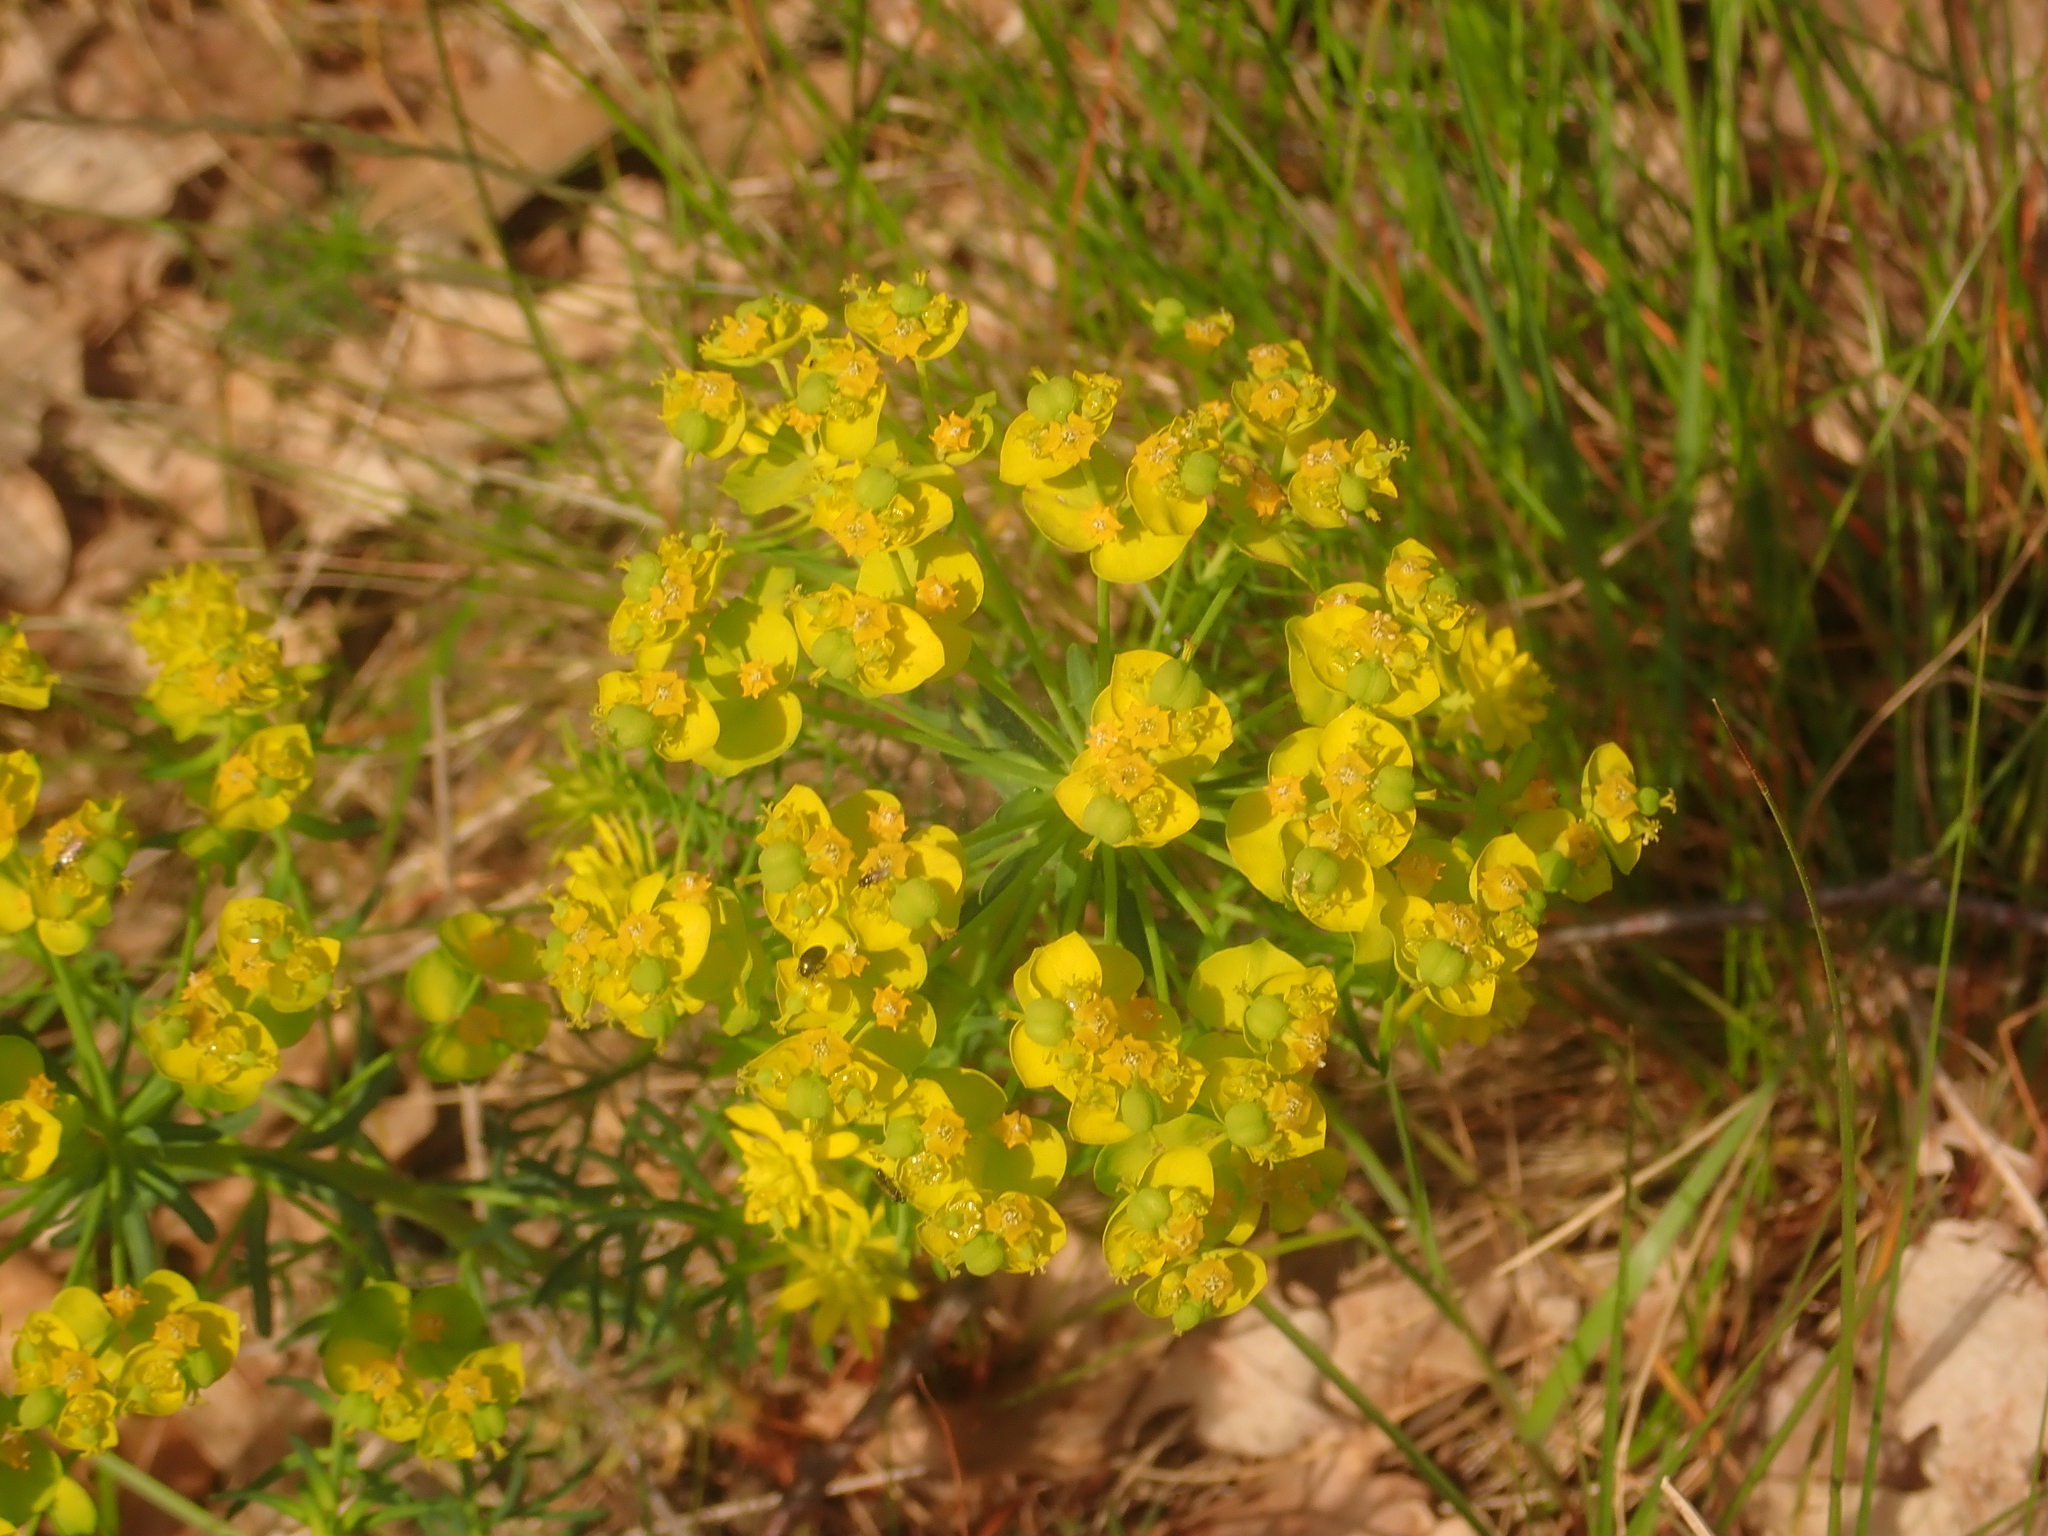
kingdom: Plantae
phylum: Tracheophyta
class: Magnoliopsida
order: Malpighiales
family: Euphorbiaceae
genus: Euphorbia
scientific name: Euphorbia cyparissias
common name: Cypress spurge
